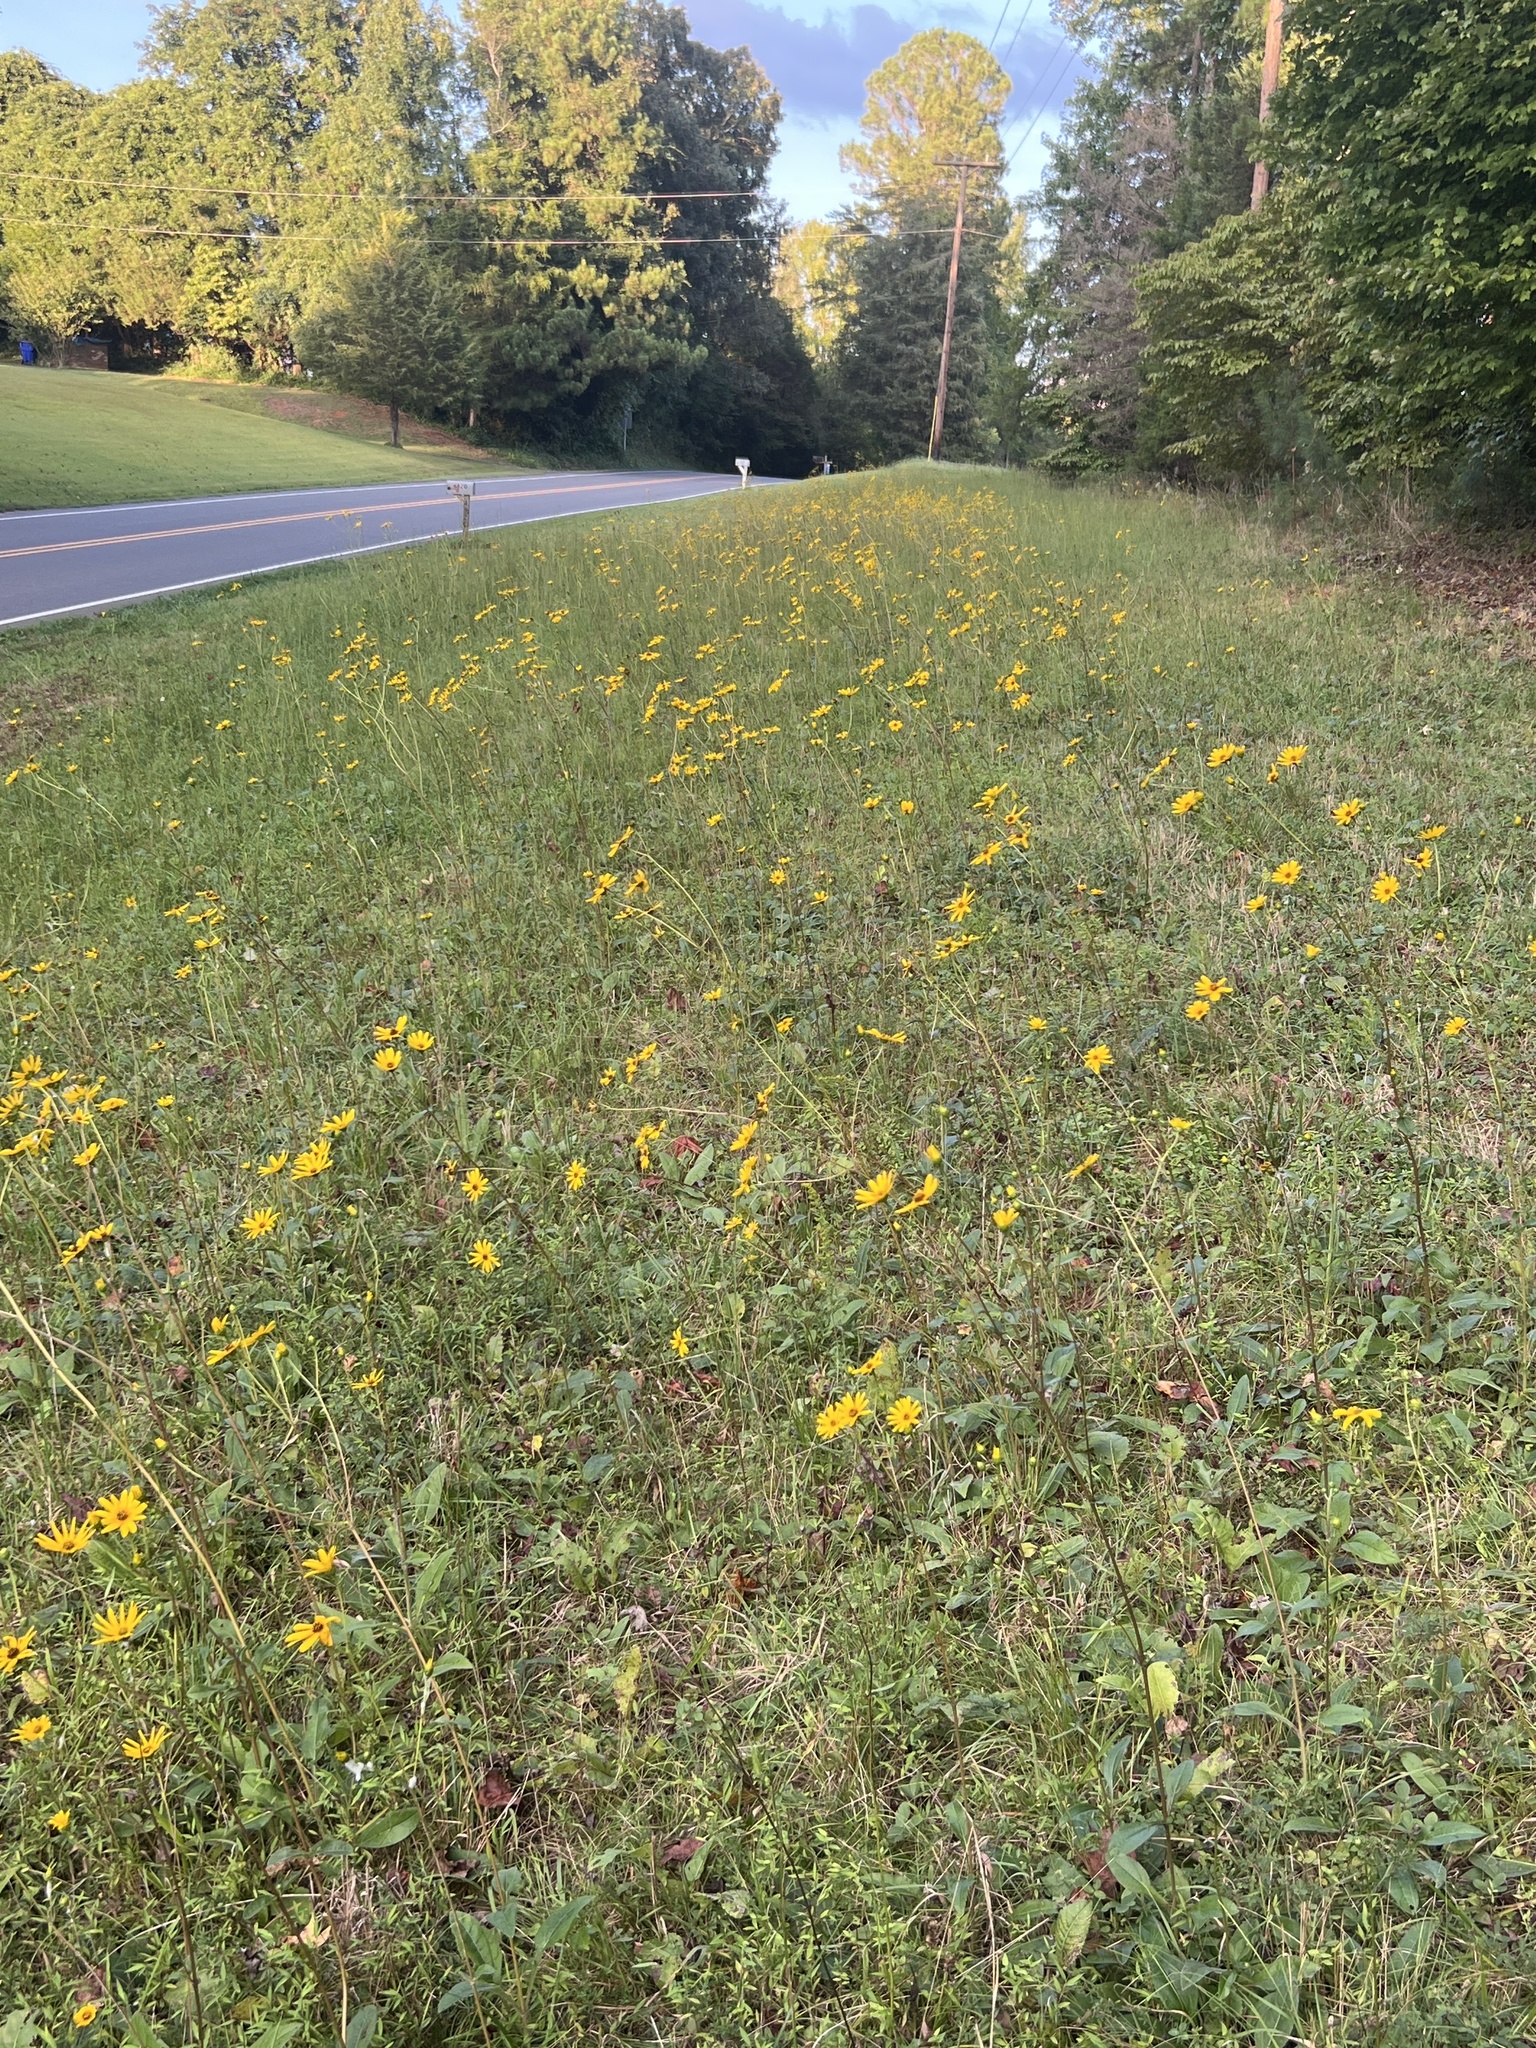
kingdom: Plantae
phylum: Tracheophyta
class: Magnoliopsida
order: Asterales
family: Asteraceae
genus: Helianthus
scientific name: Helianthus atrorubens
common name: Dark-eyed sunflower
